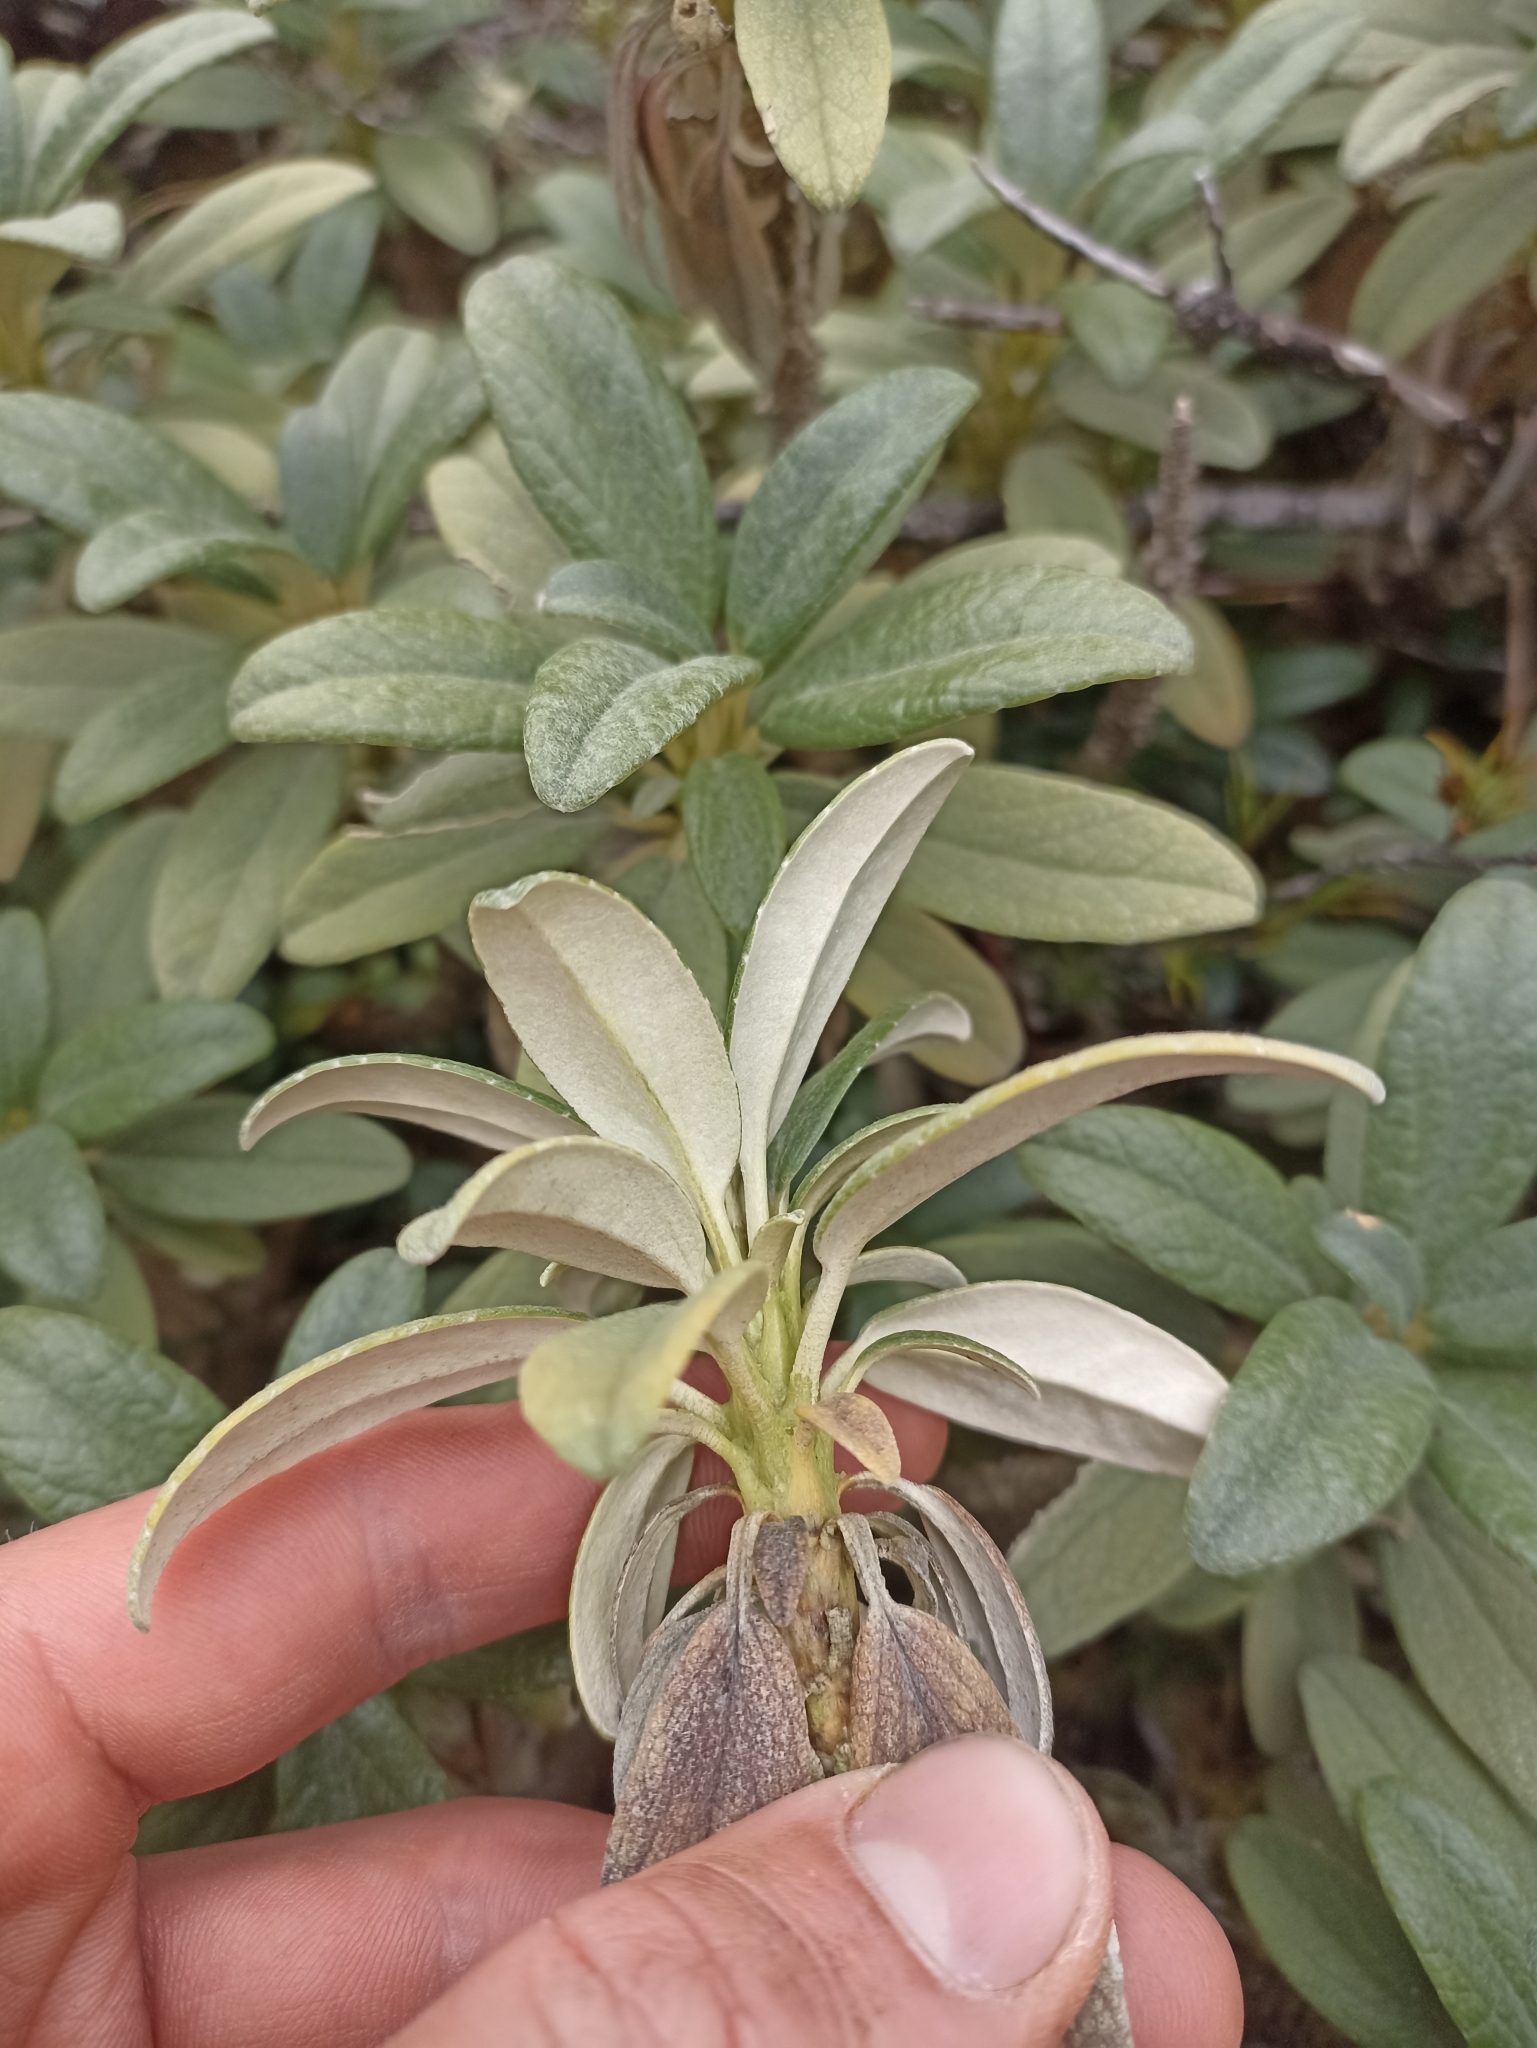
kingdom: Plantae
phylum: Tracheophyta
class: Magnoliopsida
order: Asterales
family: Asteraceae
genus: Brachyglottis
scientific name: Brachyglottis revoluta
